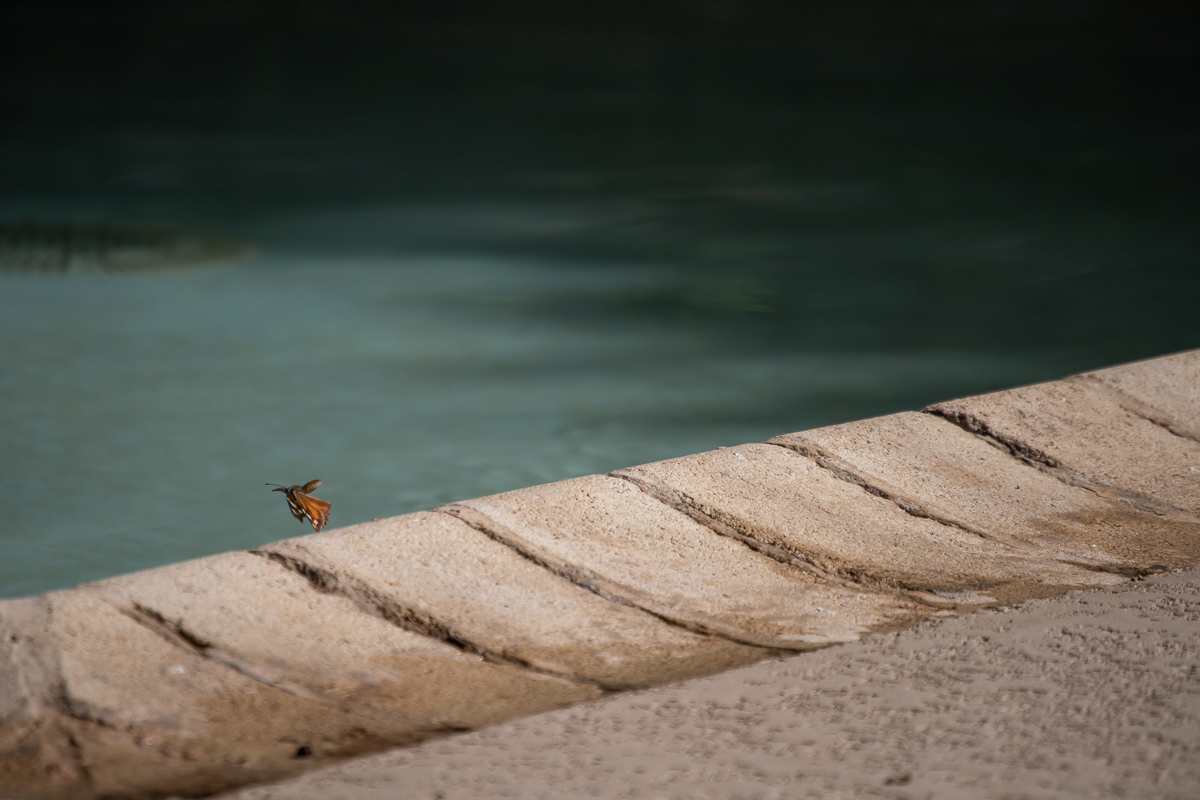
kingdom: Animalia
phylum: Arthropoda
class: Insecta
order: Lepidoptera
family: Nymphalidae
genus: Libytheana
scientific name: Libytheana carinenta
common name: American snout
